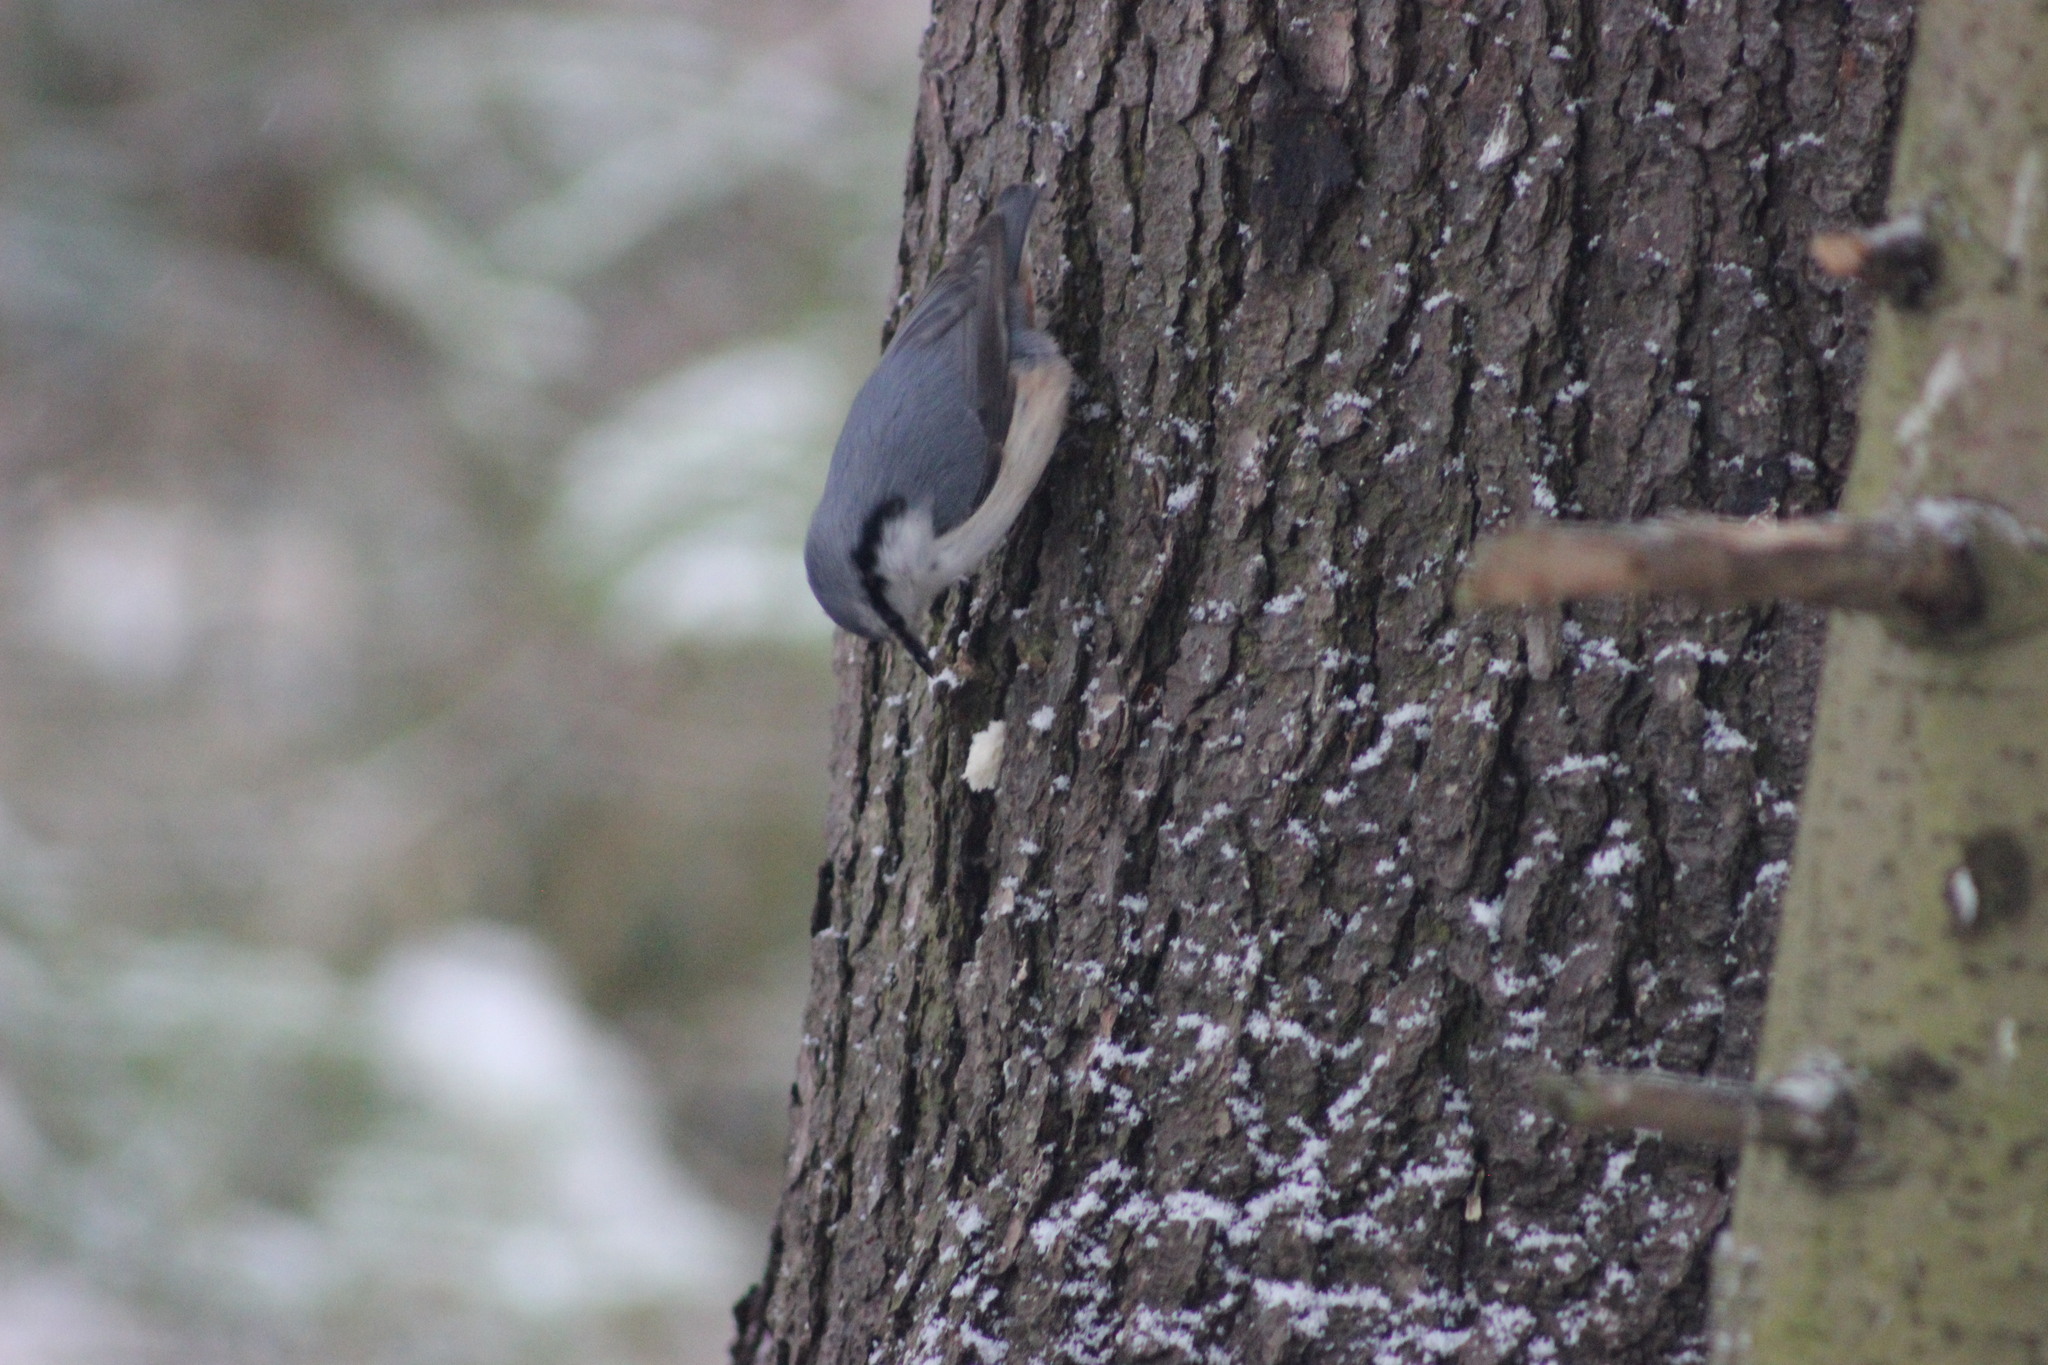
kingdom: Animalia
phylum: Chordata
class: Aves
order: Passeriformes
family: Sittidae
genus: Sitta
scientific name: Sitta europaea
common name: Eurasian nuthatch
